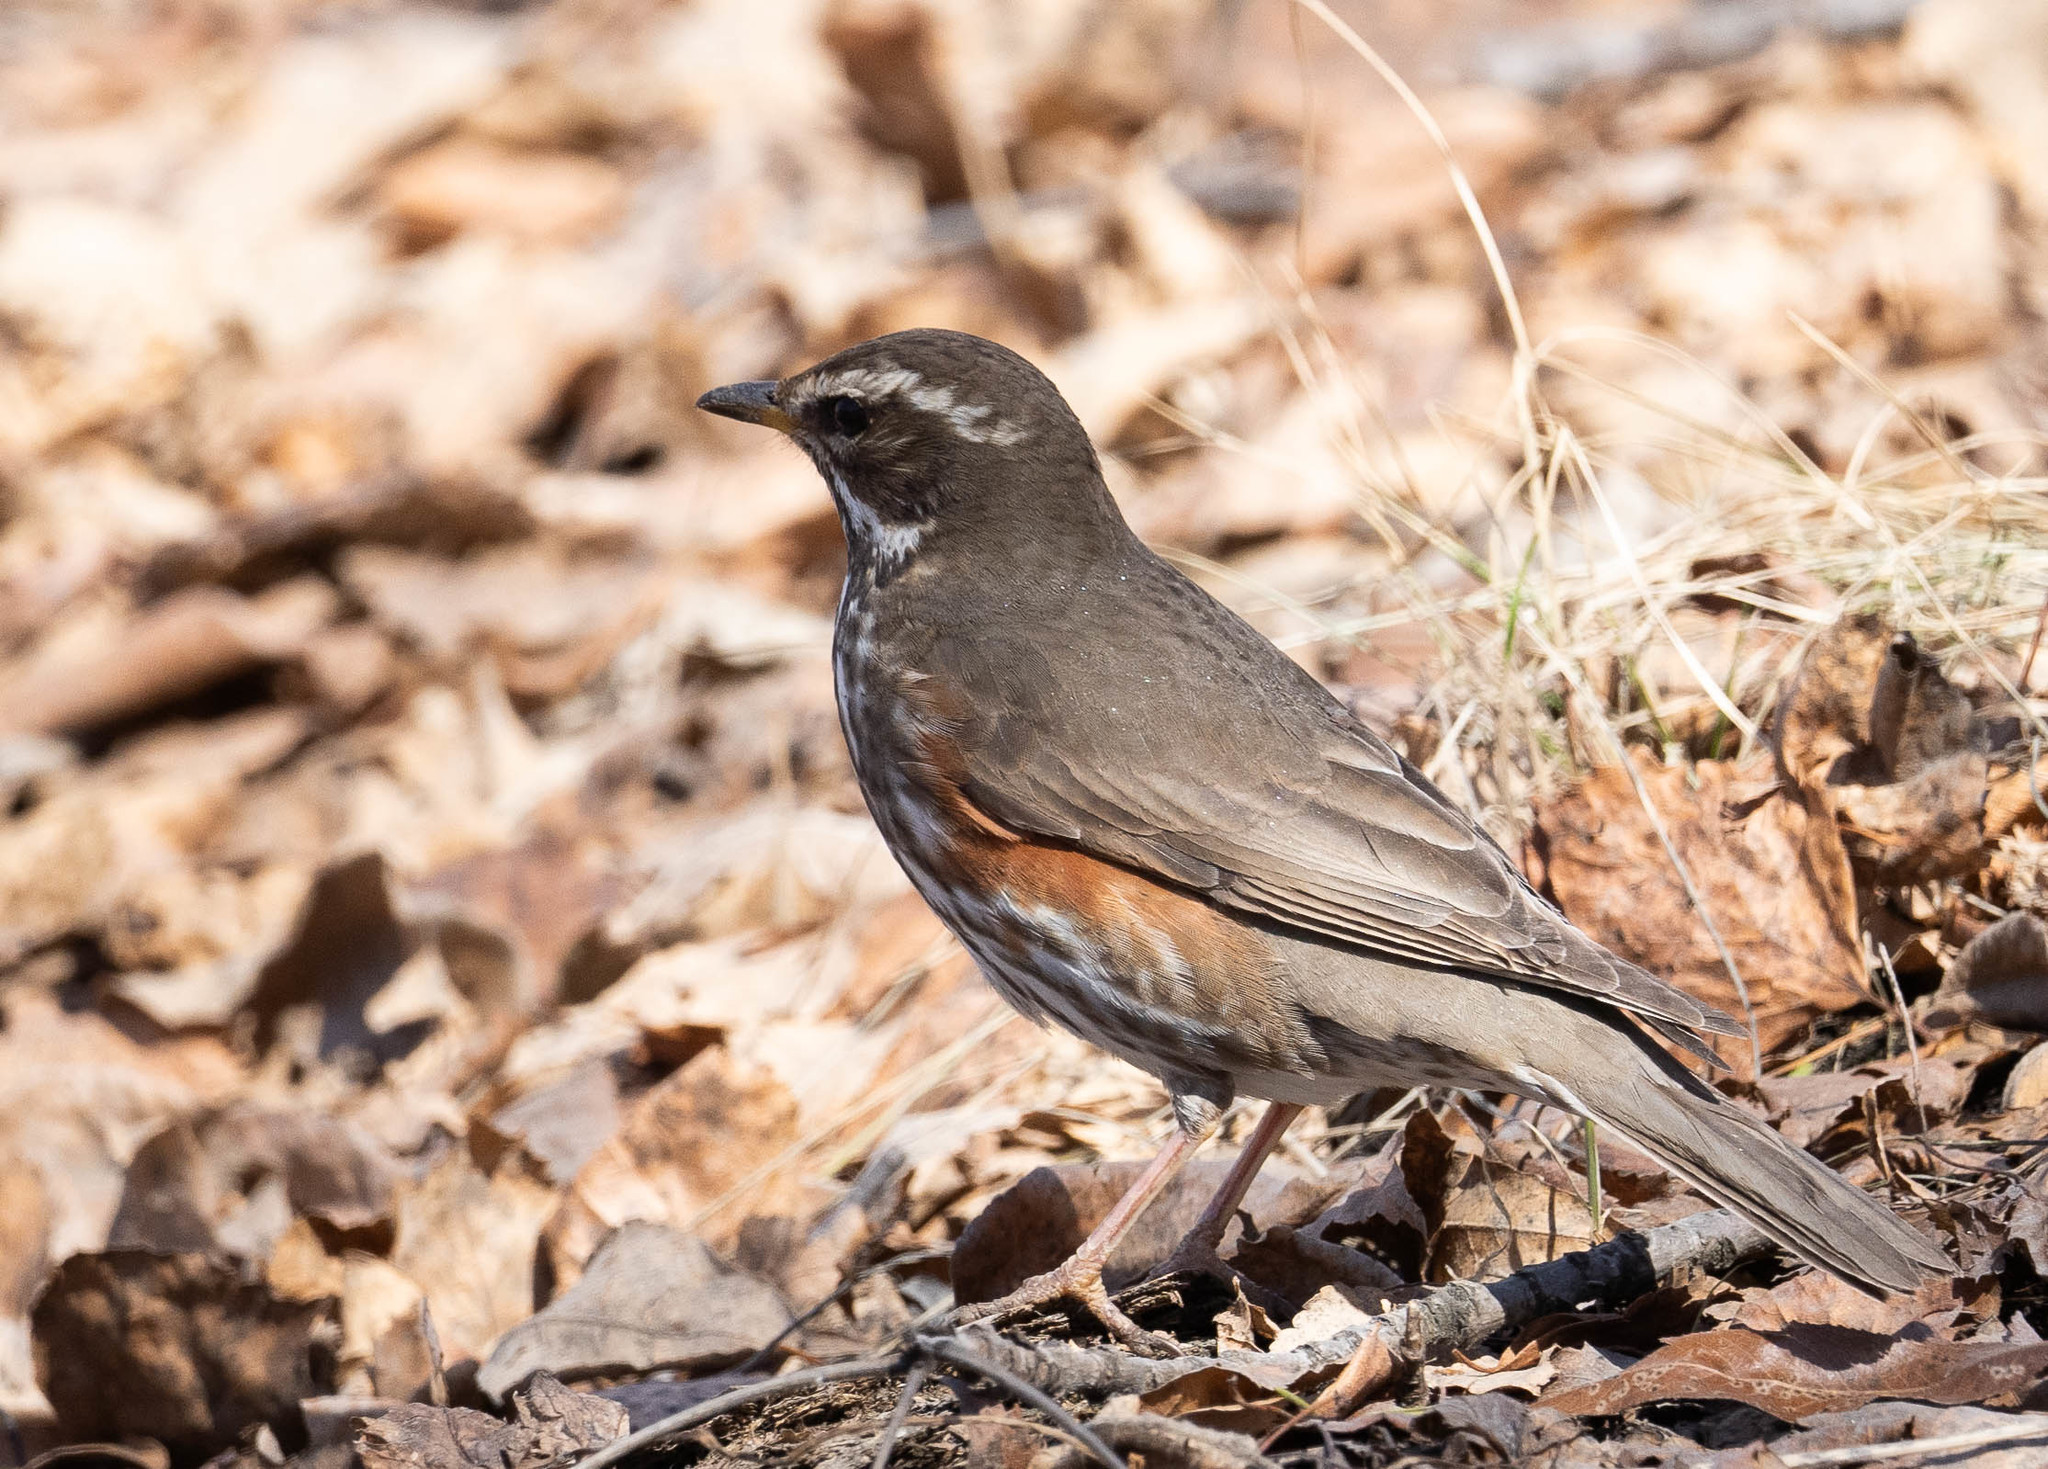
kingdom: Animalia
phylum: Chordata
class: Aves
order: Passeriformes
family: Turdidae
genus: Turdus
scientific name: Turdus iliacus
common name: Redwing
